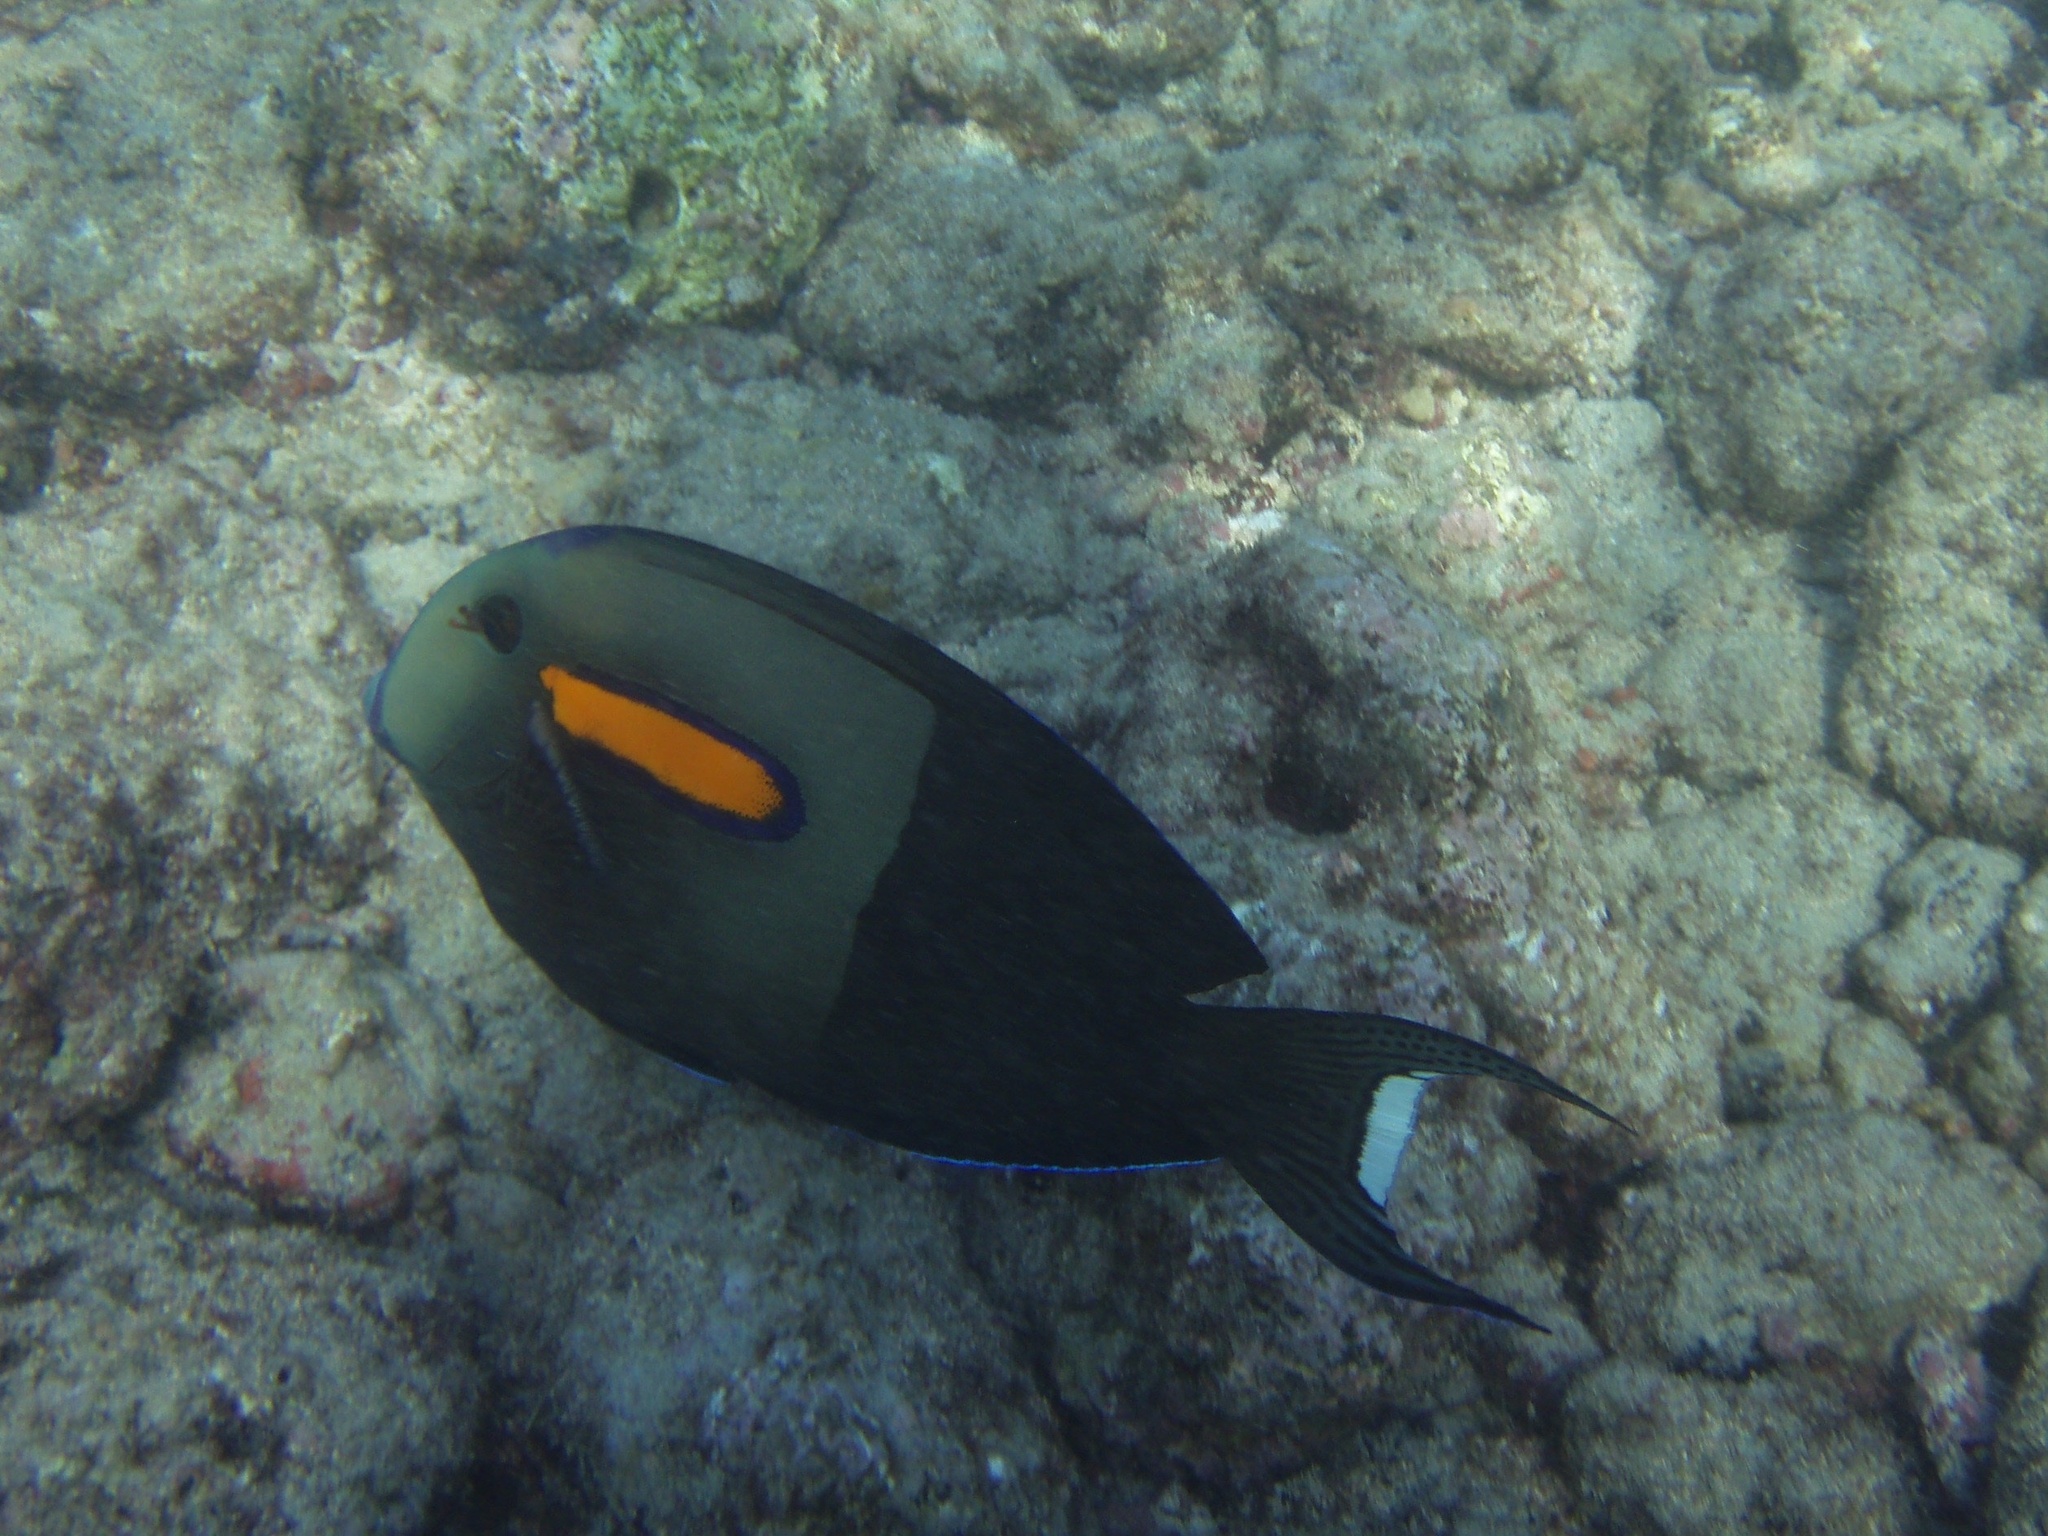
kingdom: Animalia
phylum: Chordata
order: Perciformes
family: Acanthuridae
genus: Acanthurus
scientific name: Acanthurus olivaceus
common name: Gendarme fish
